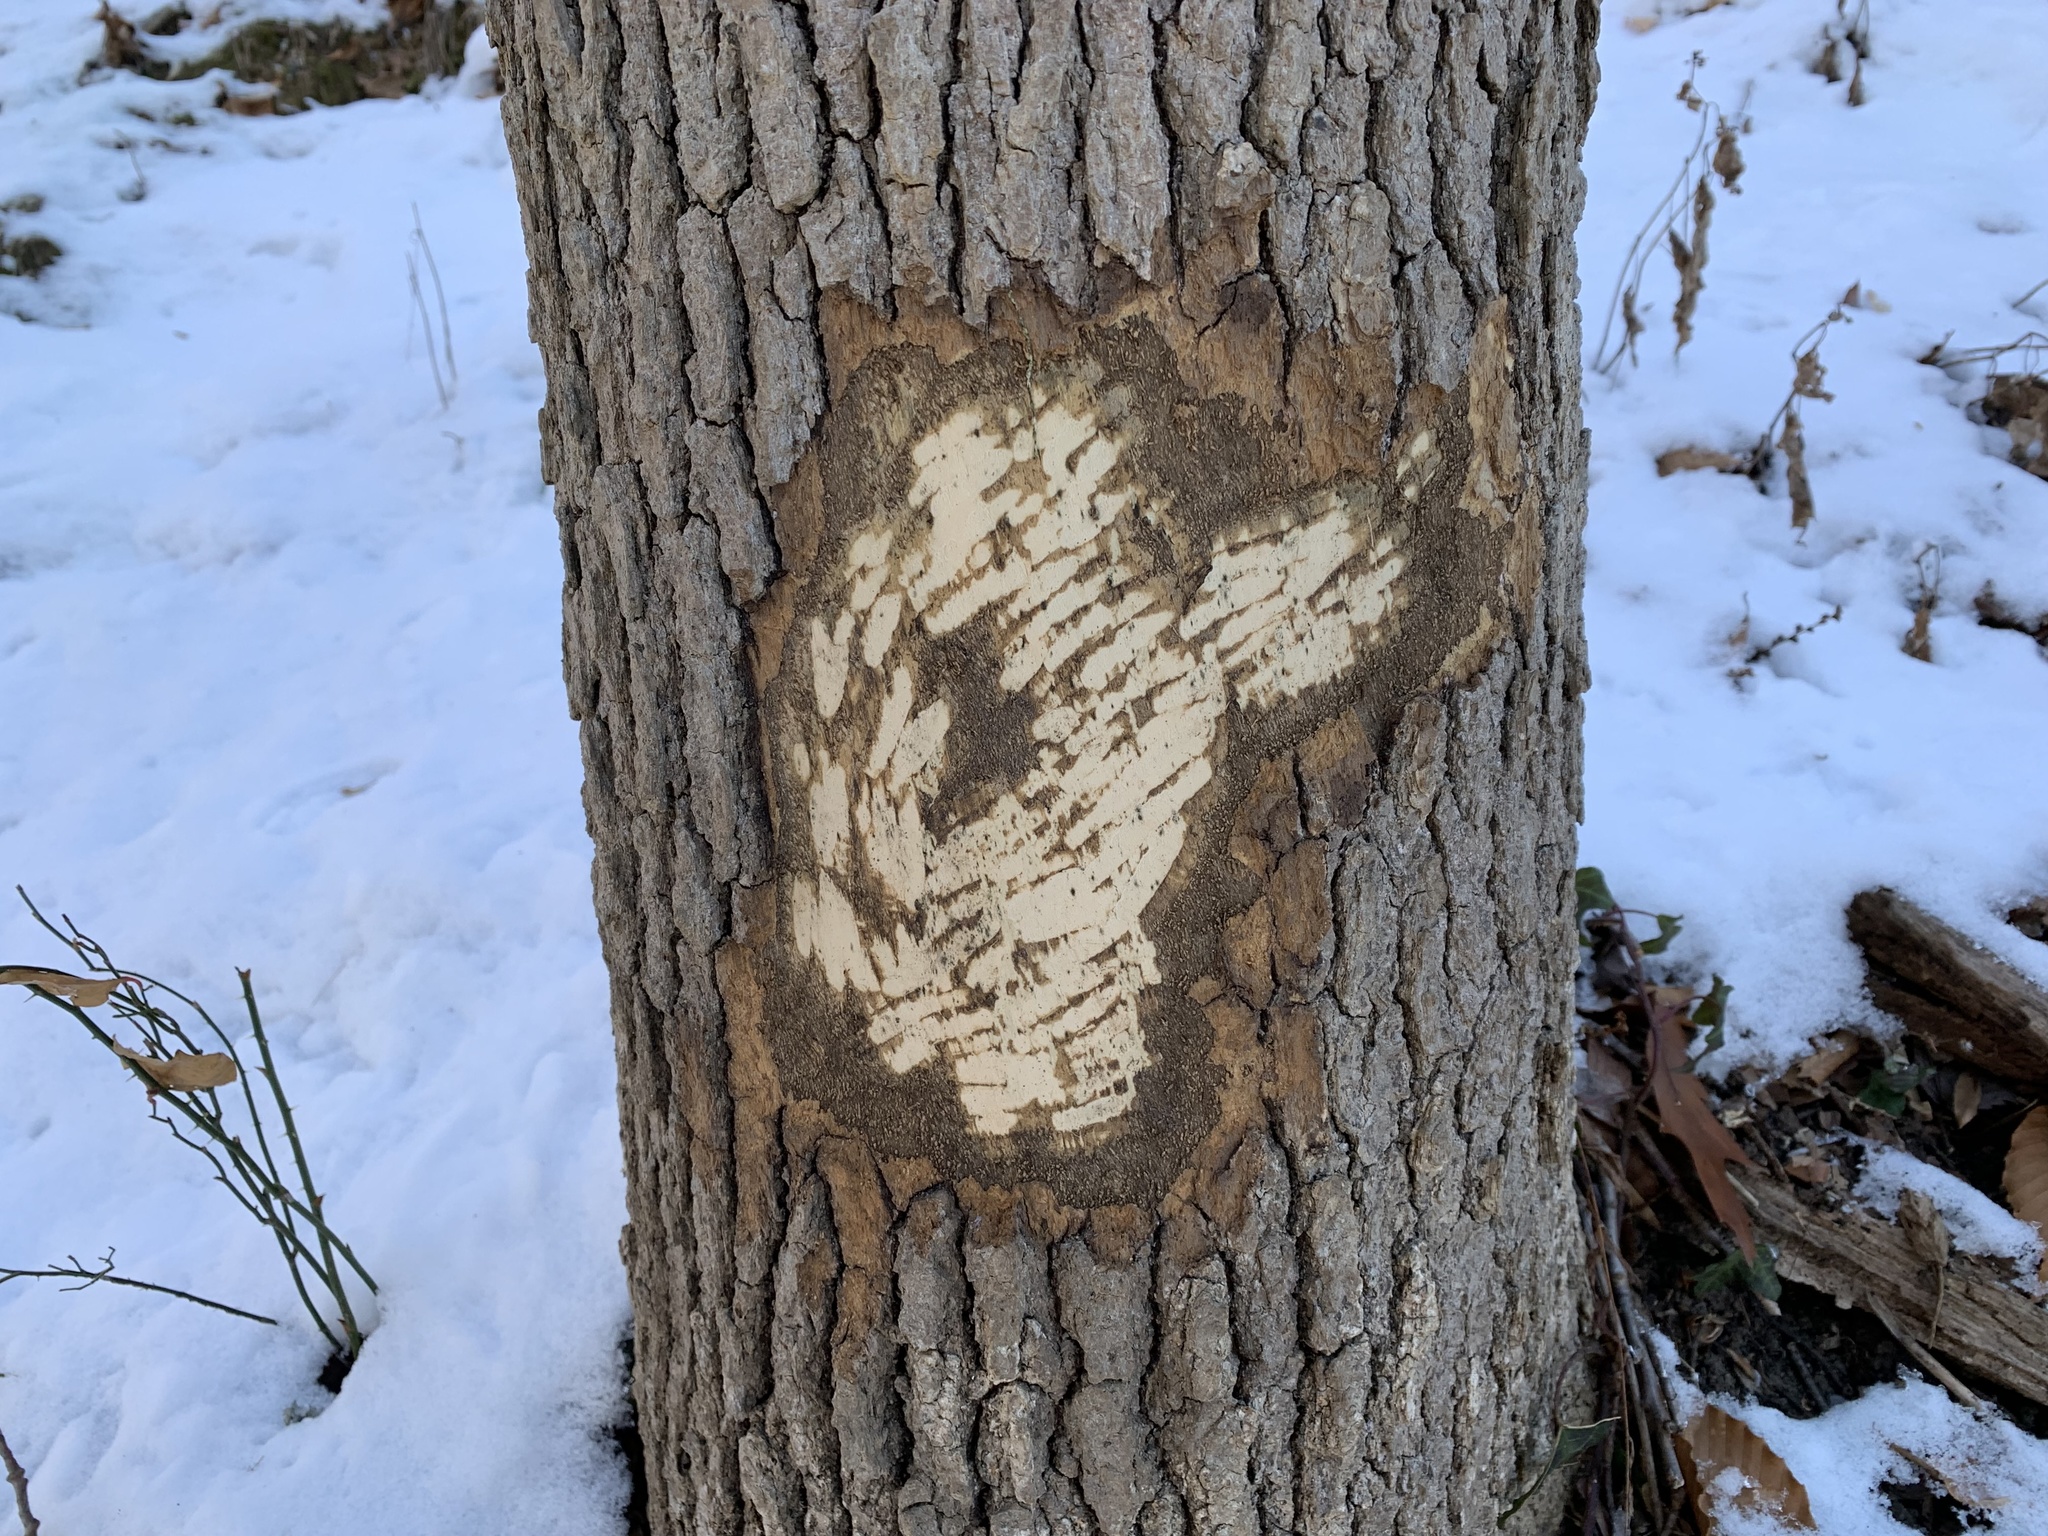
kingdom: Animalia
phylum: Chordata
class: Mammalia
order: Rodentia
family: Castoridae
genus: Castor
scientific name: Castor canadensis
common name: American beaver
